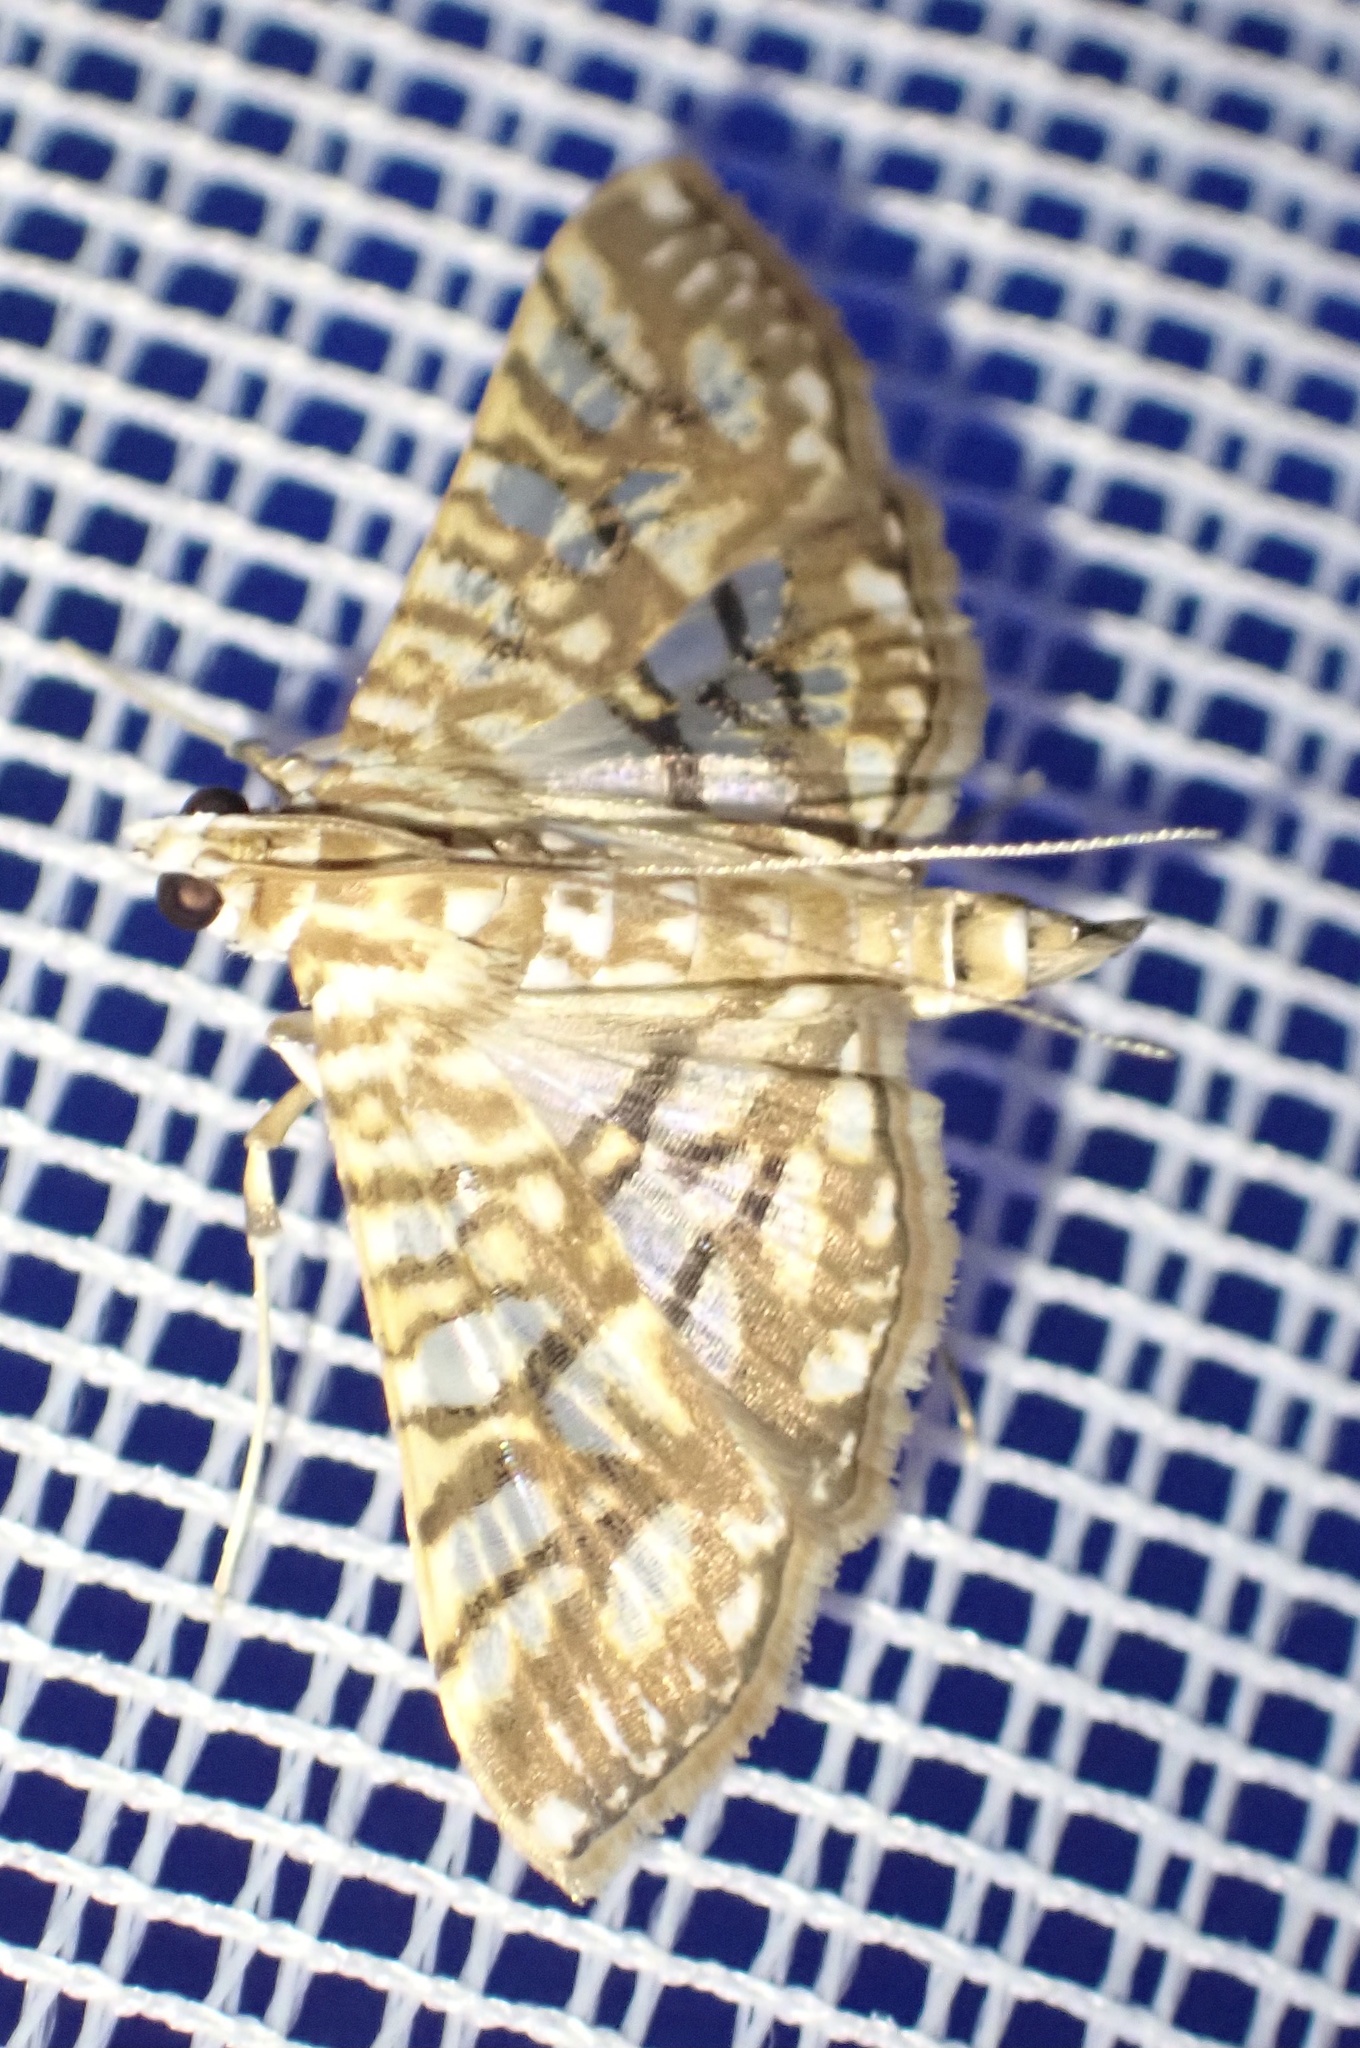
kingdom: Animalia
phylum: Arthropoda
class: Insecta
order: Lepidoptera
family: Crambidae
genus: Synclera
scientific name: Synclera traducalis
